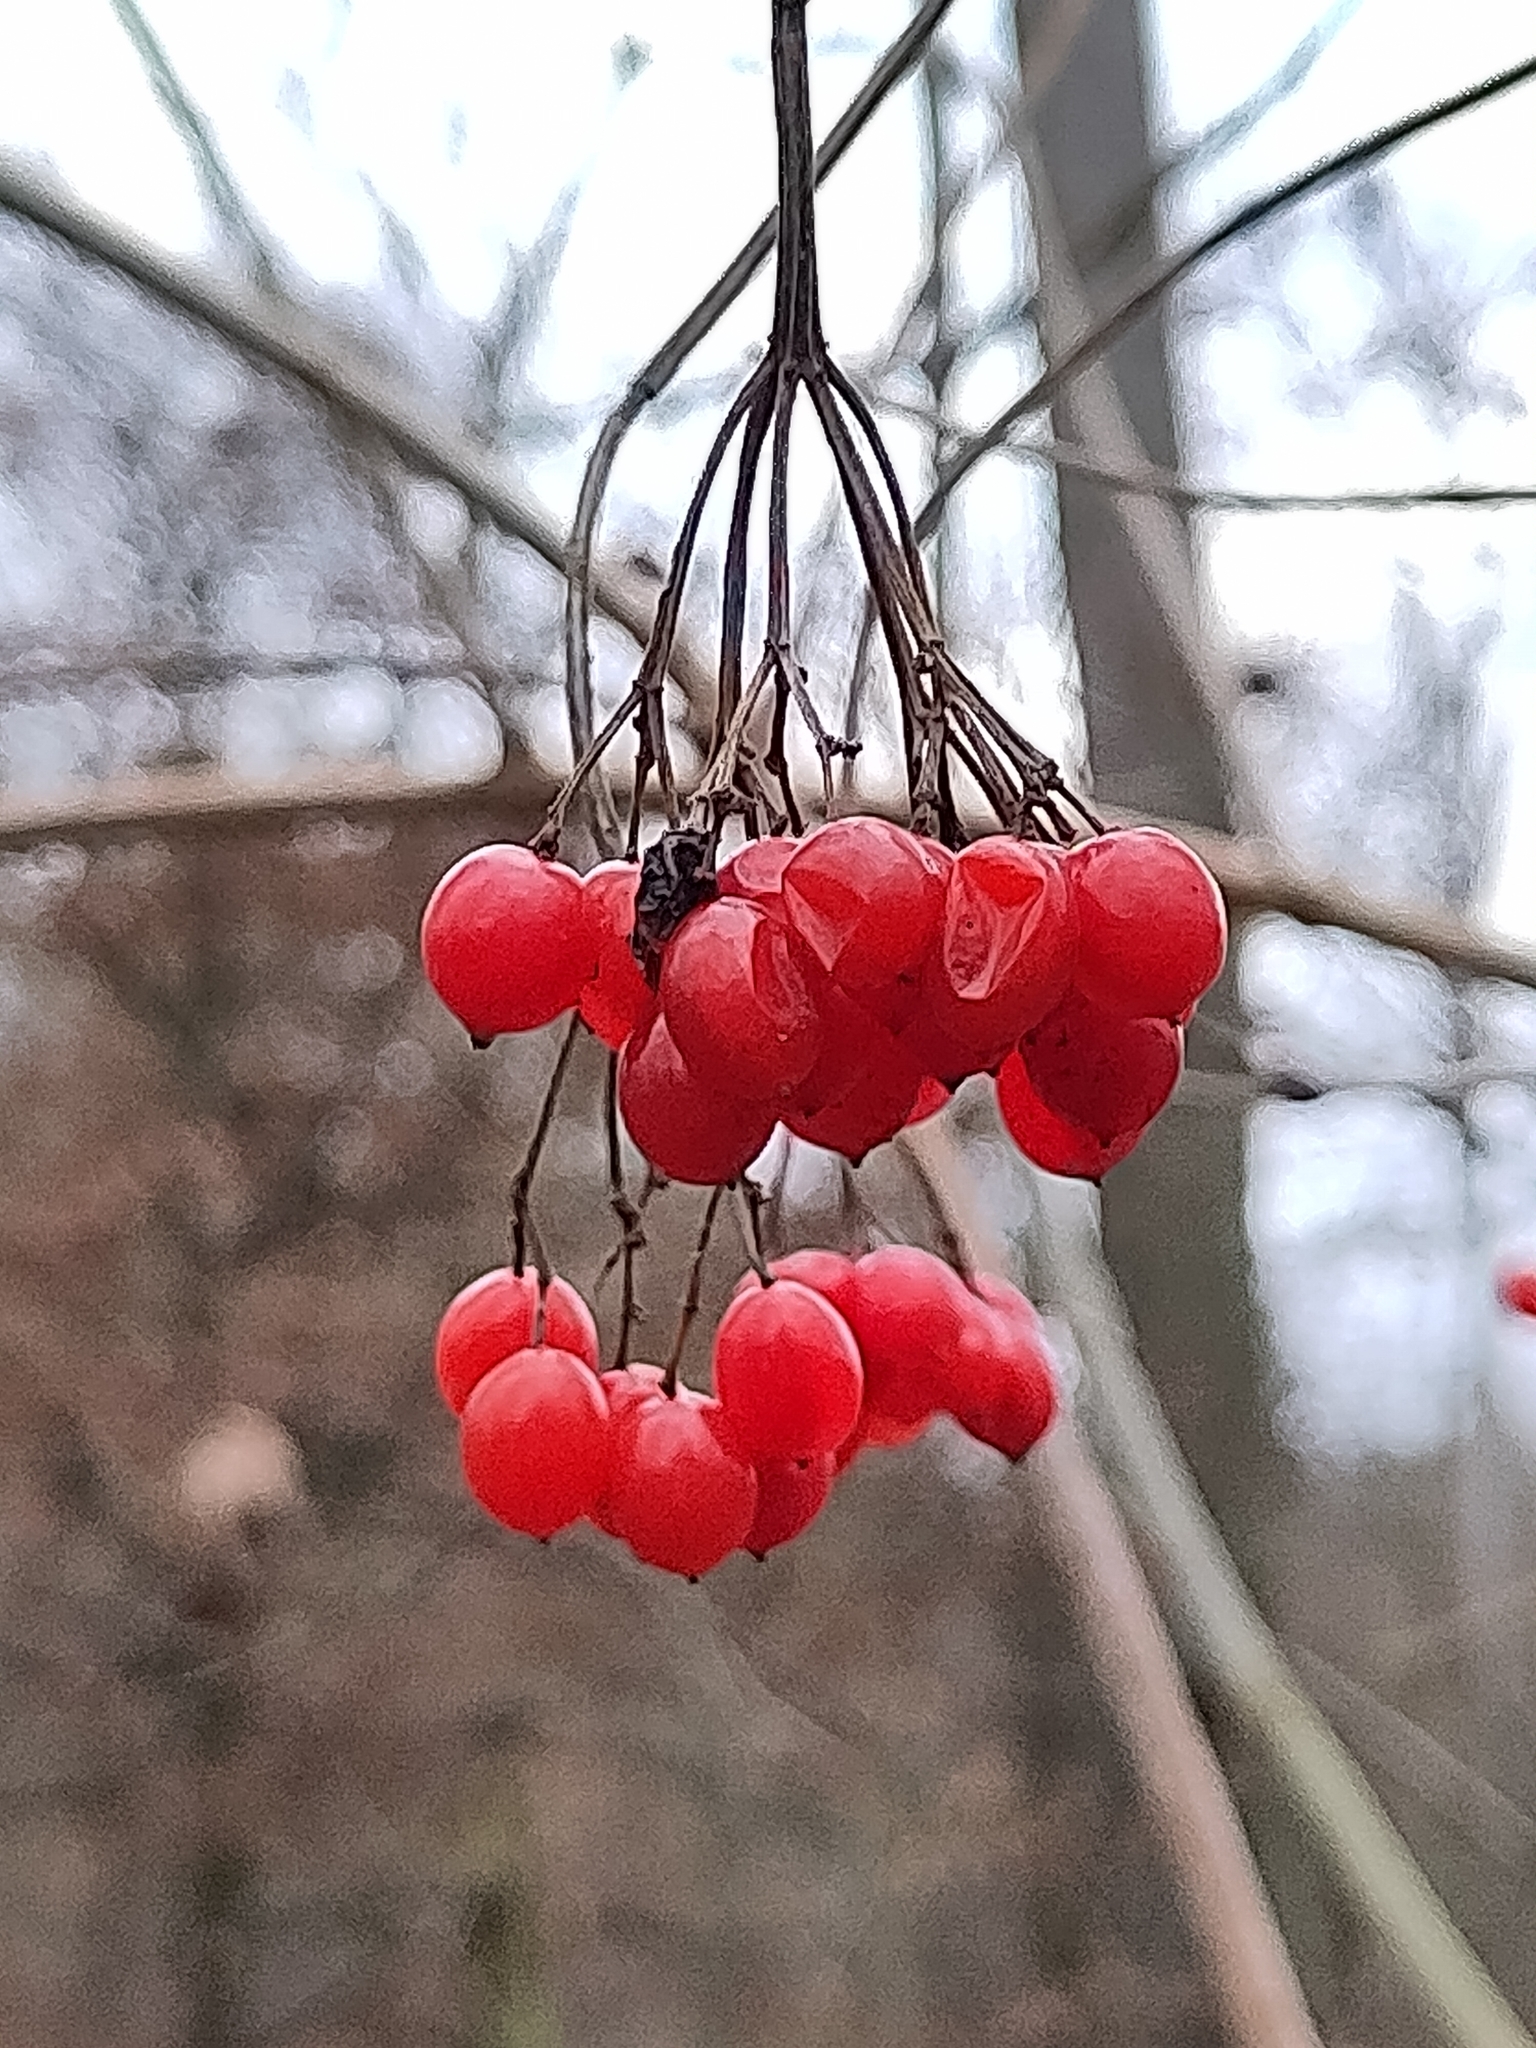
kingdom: Plantae
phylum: Tracheophyta
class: Magnoliopsida
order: Dipsacales
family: Viburnaceae
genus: Viburnum
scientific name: Viburnum opulus
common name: Guelder-rose
